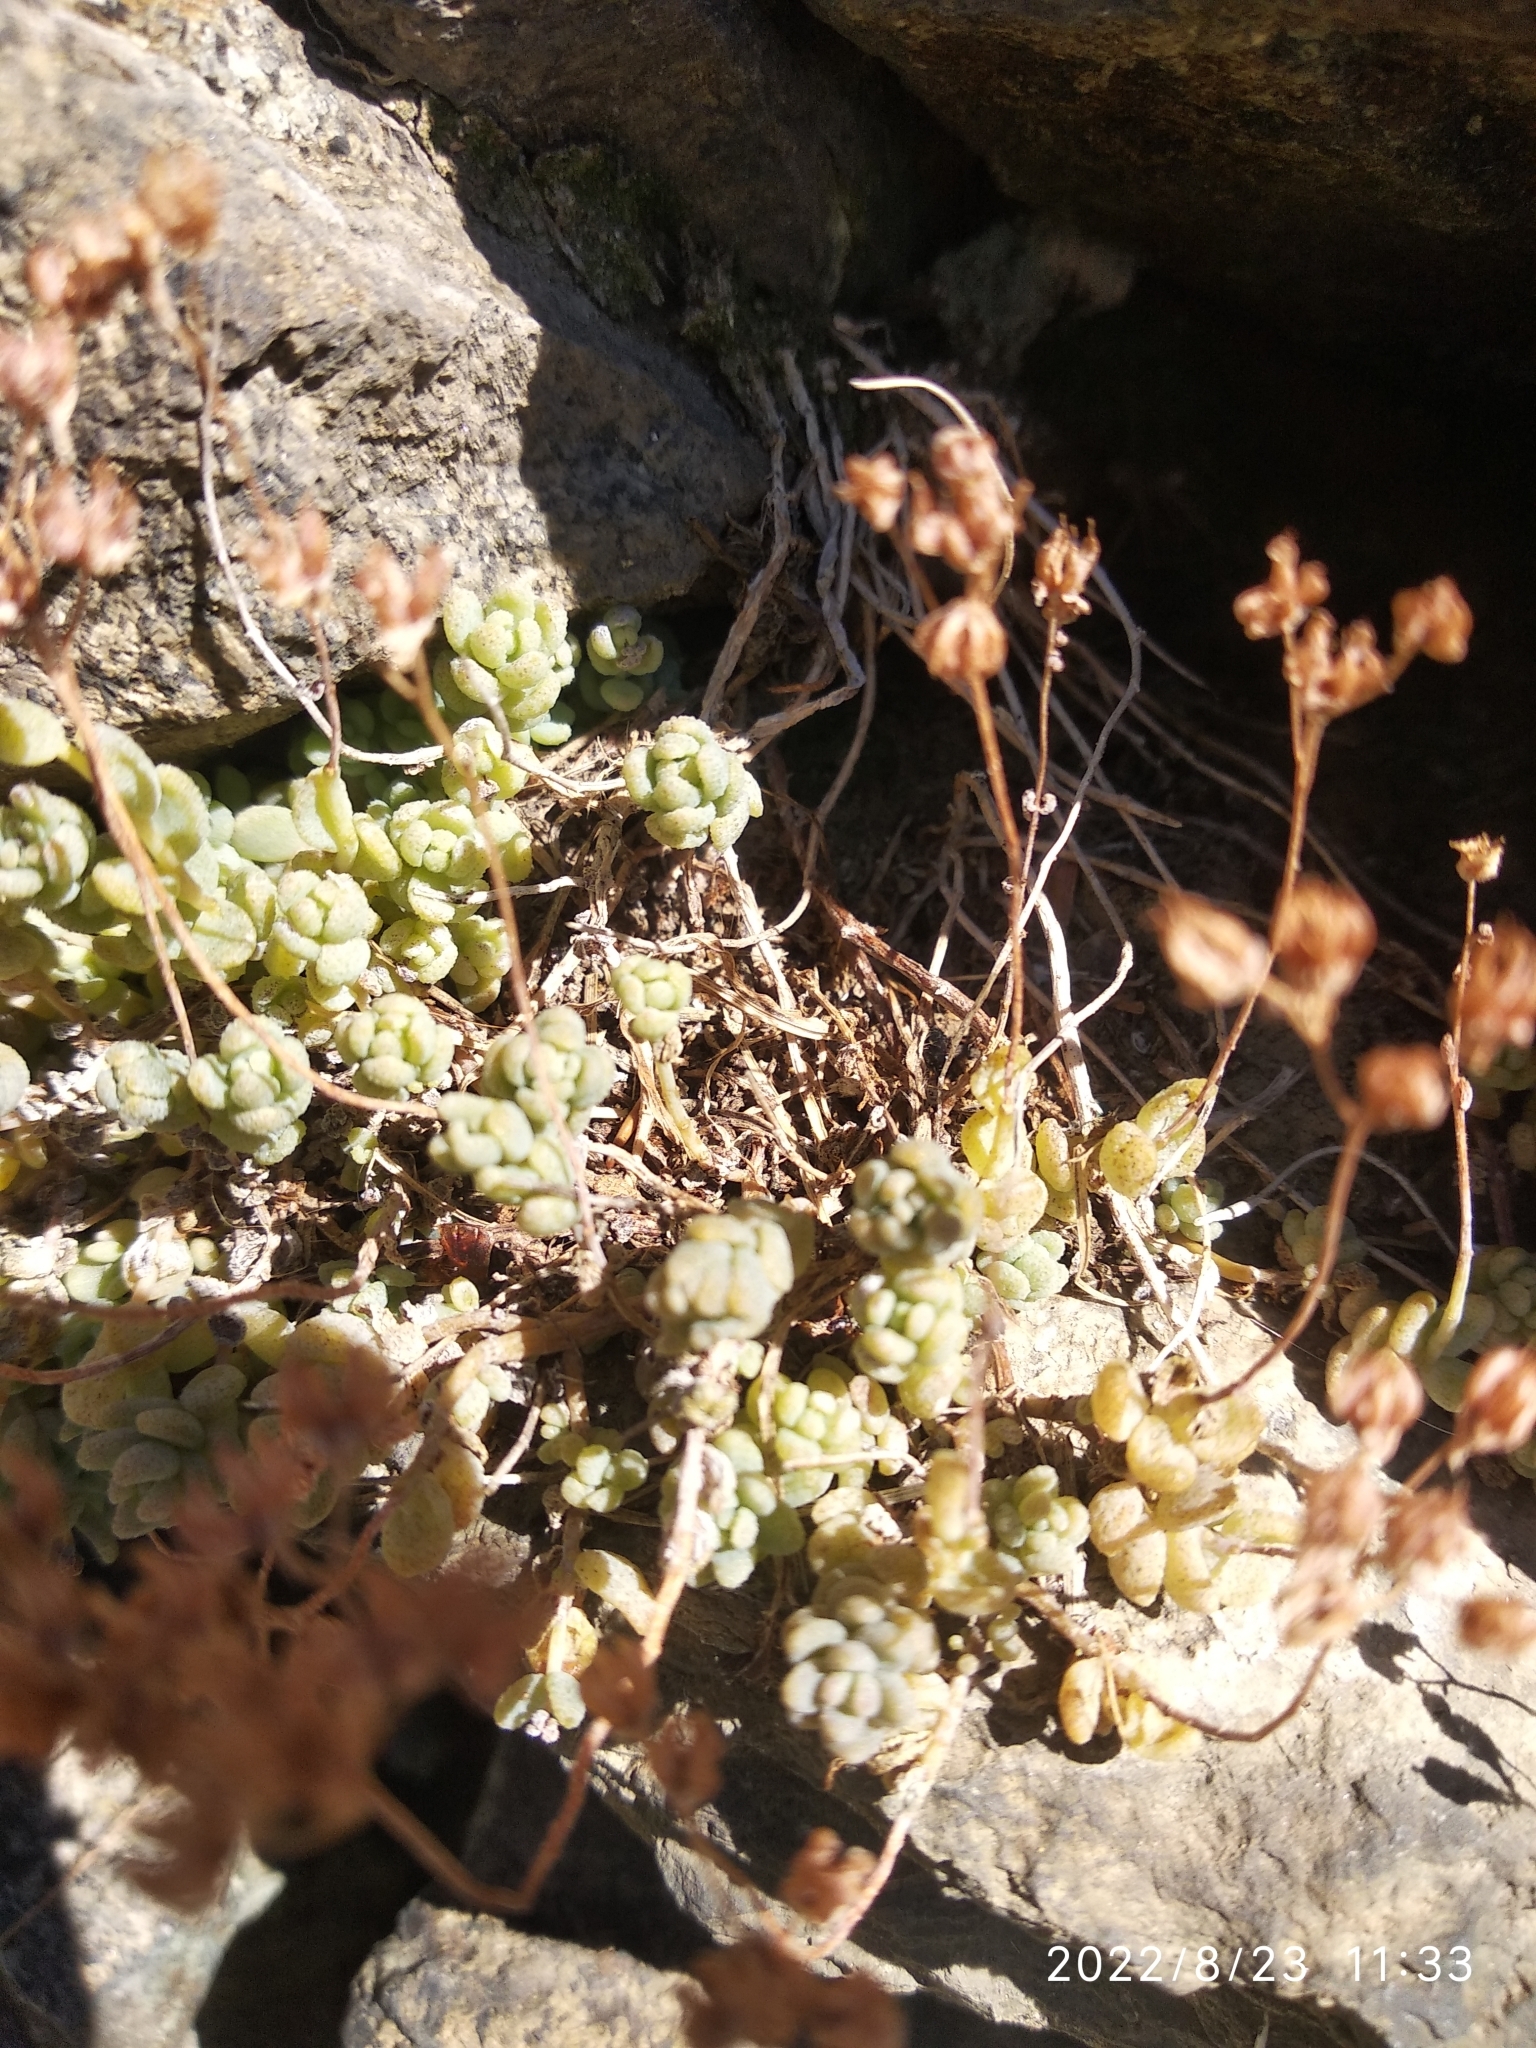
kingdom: Plantae
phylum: Tracheophyta
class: Magnoliopsida
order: Saxifragales
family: Crassulaceae
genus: Sedum
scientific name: Sedum dasyphyllum
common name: Thick-leaf stonecrop
